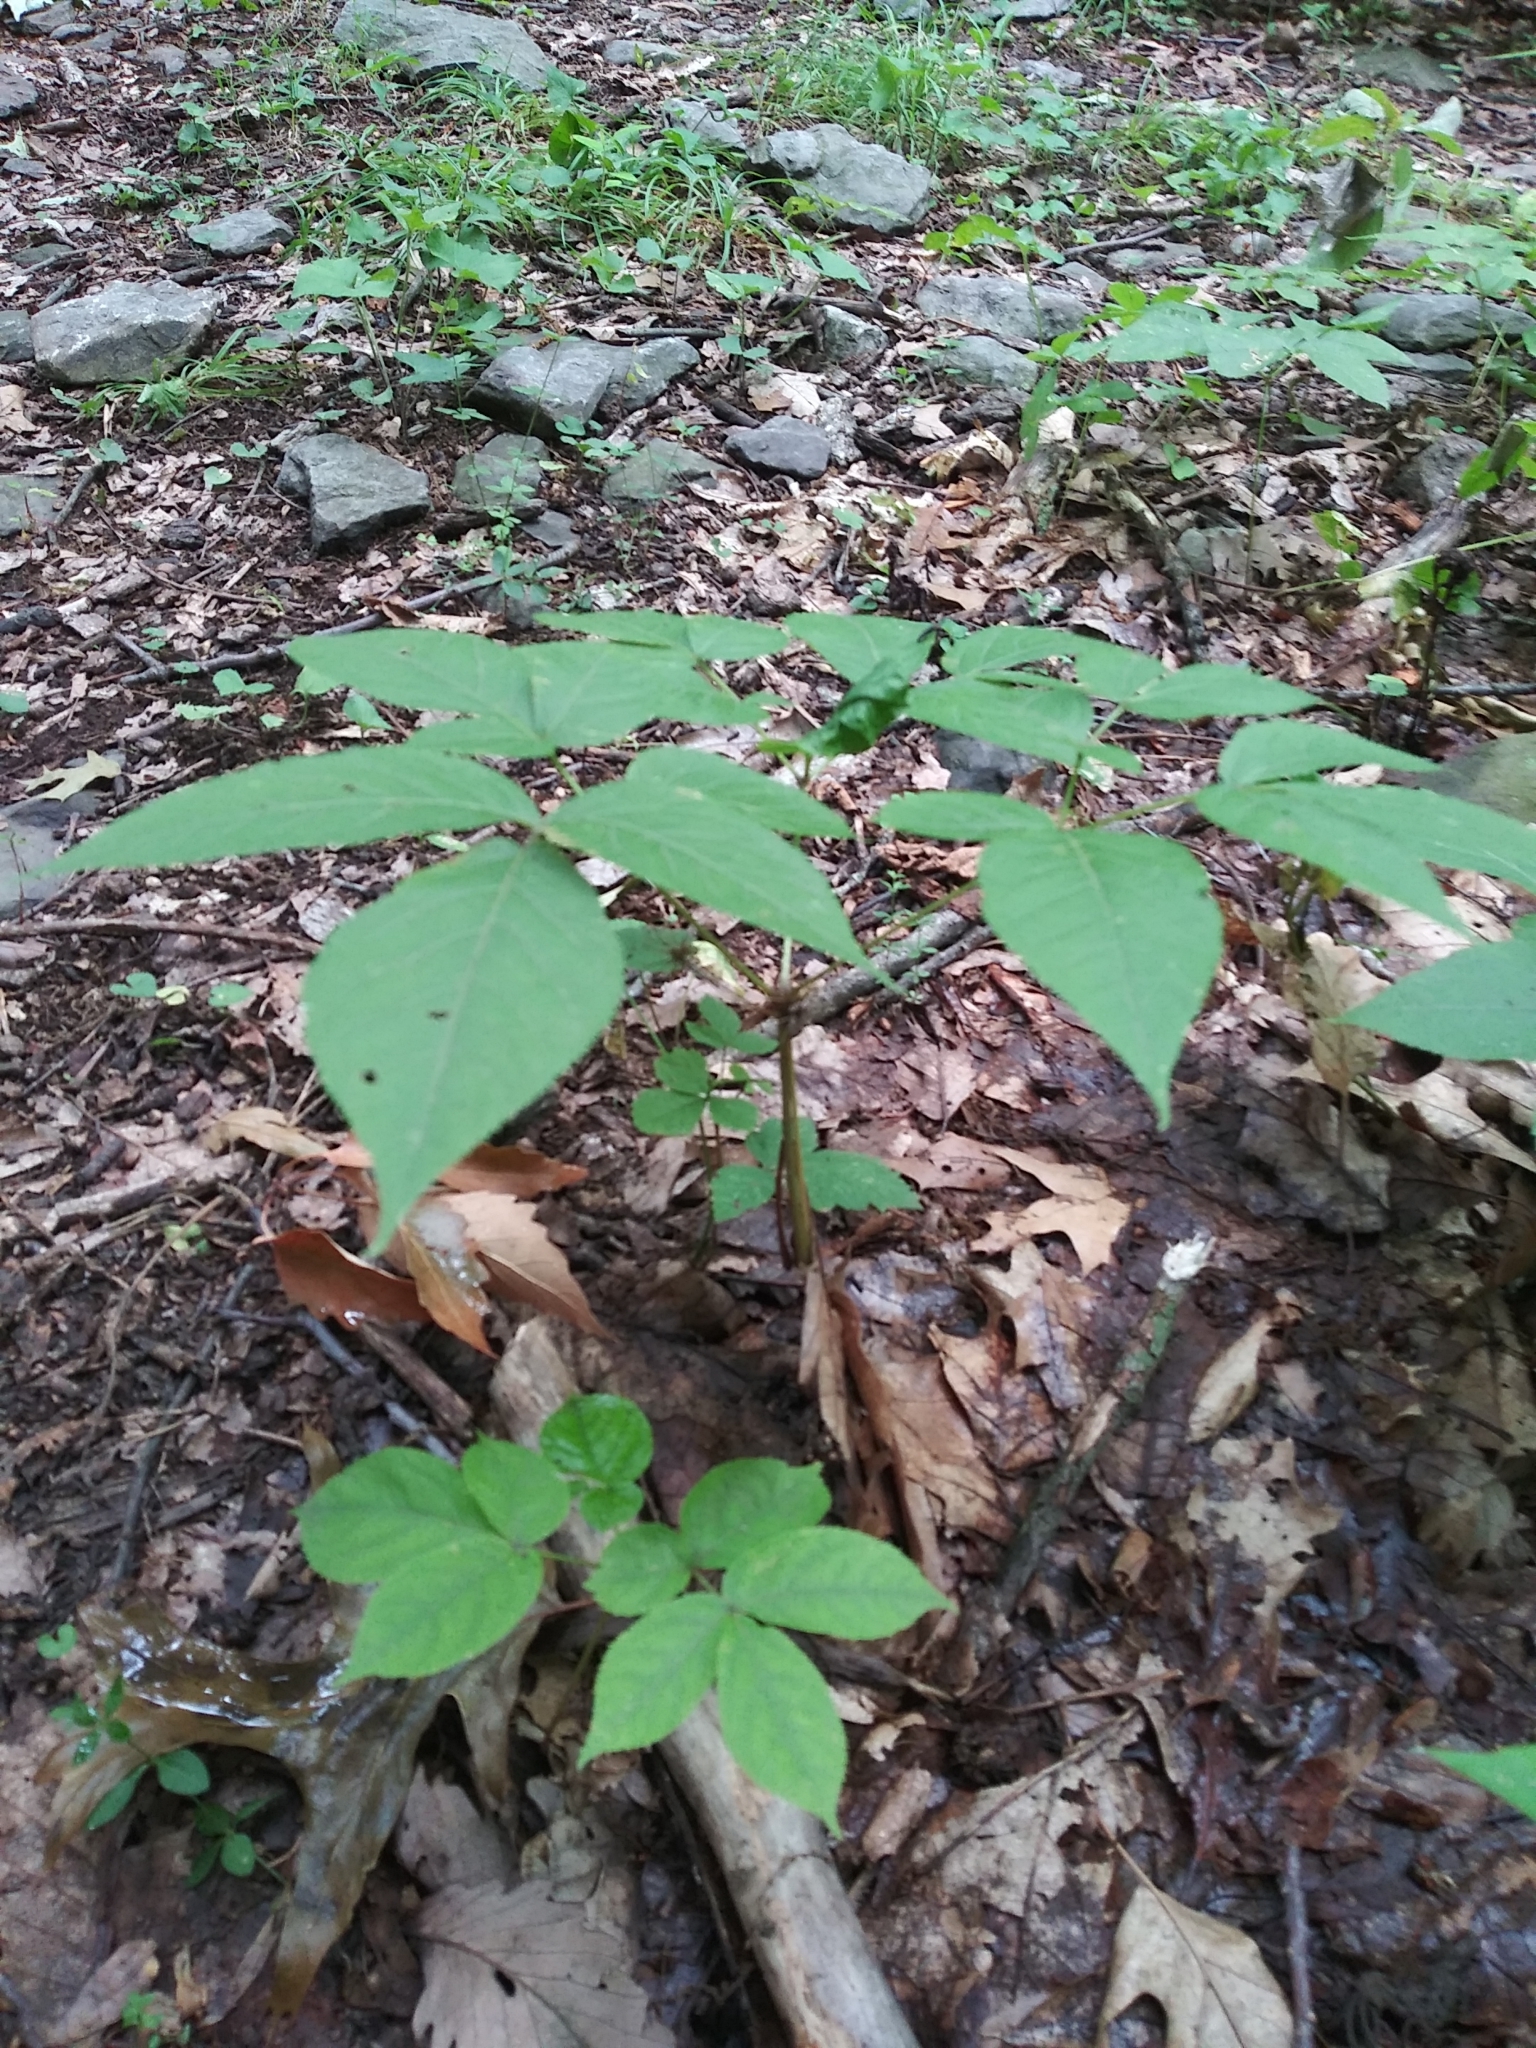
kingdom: Plantae
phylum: Tracheophyta
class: Magnoliopsida
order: Apiales
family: Araliaceae
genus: Aralia
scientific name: Aralia nudicaulis
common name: Wild sarsaparilla
